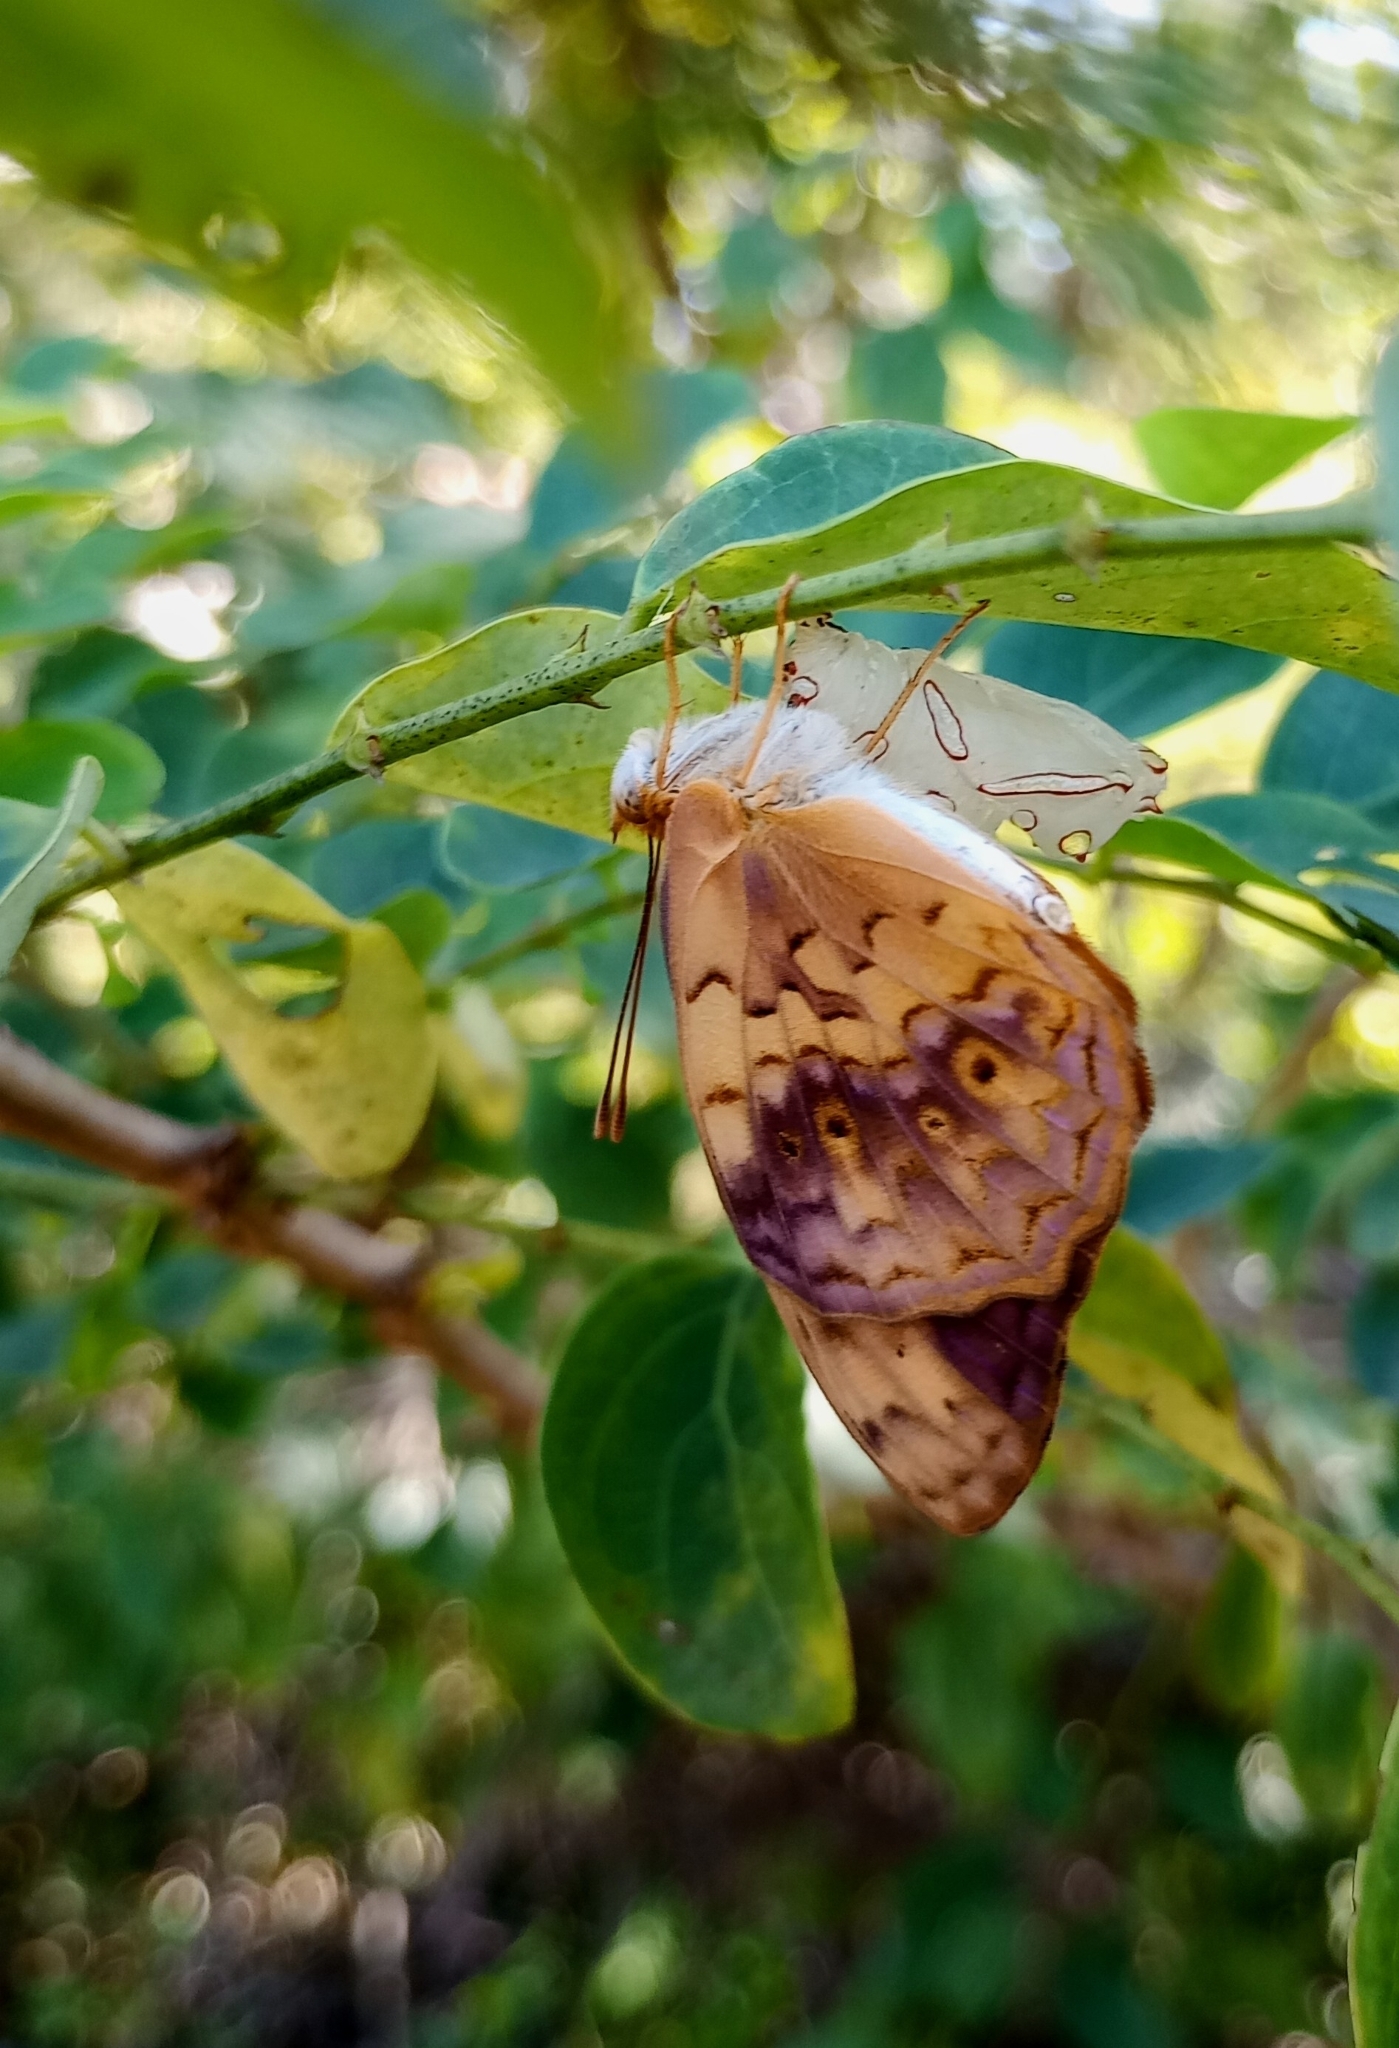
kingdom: Animalia
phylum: Arthropoda
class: Insecta
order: Lepidoptera
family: Nymphalidae
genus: Phalanta
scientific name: Phalanta phalantha
